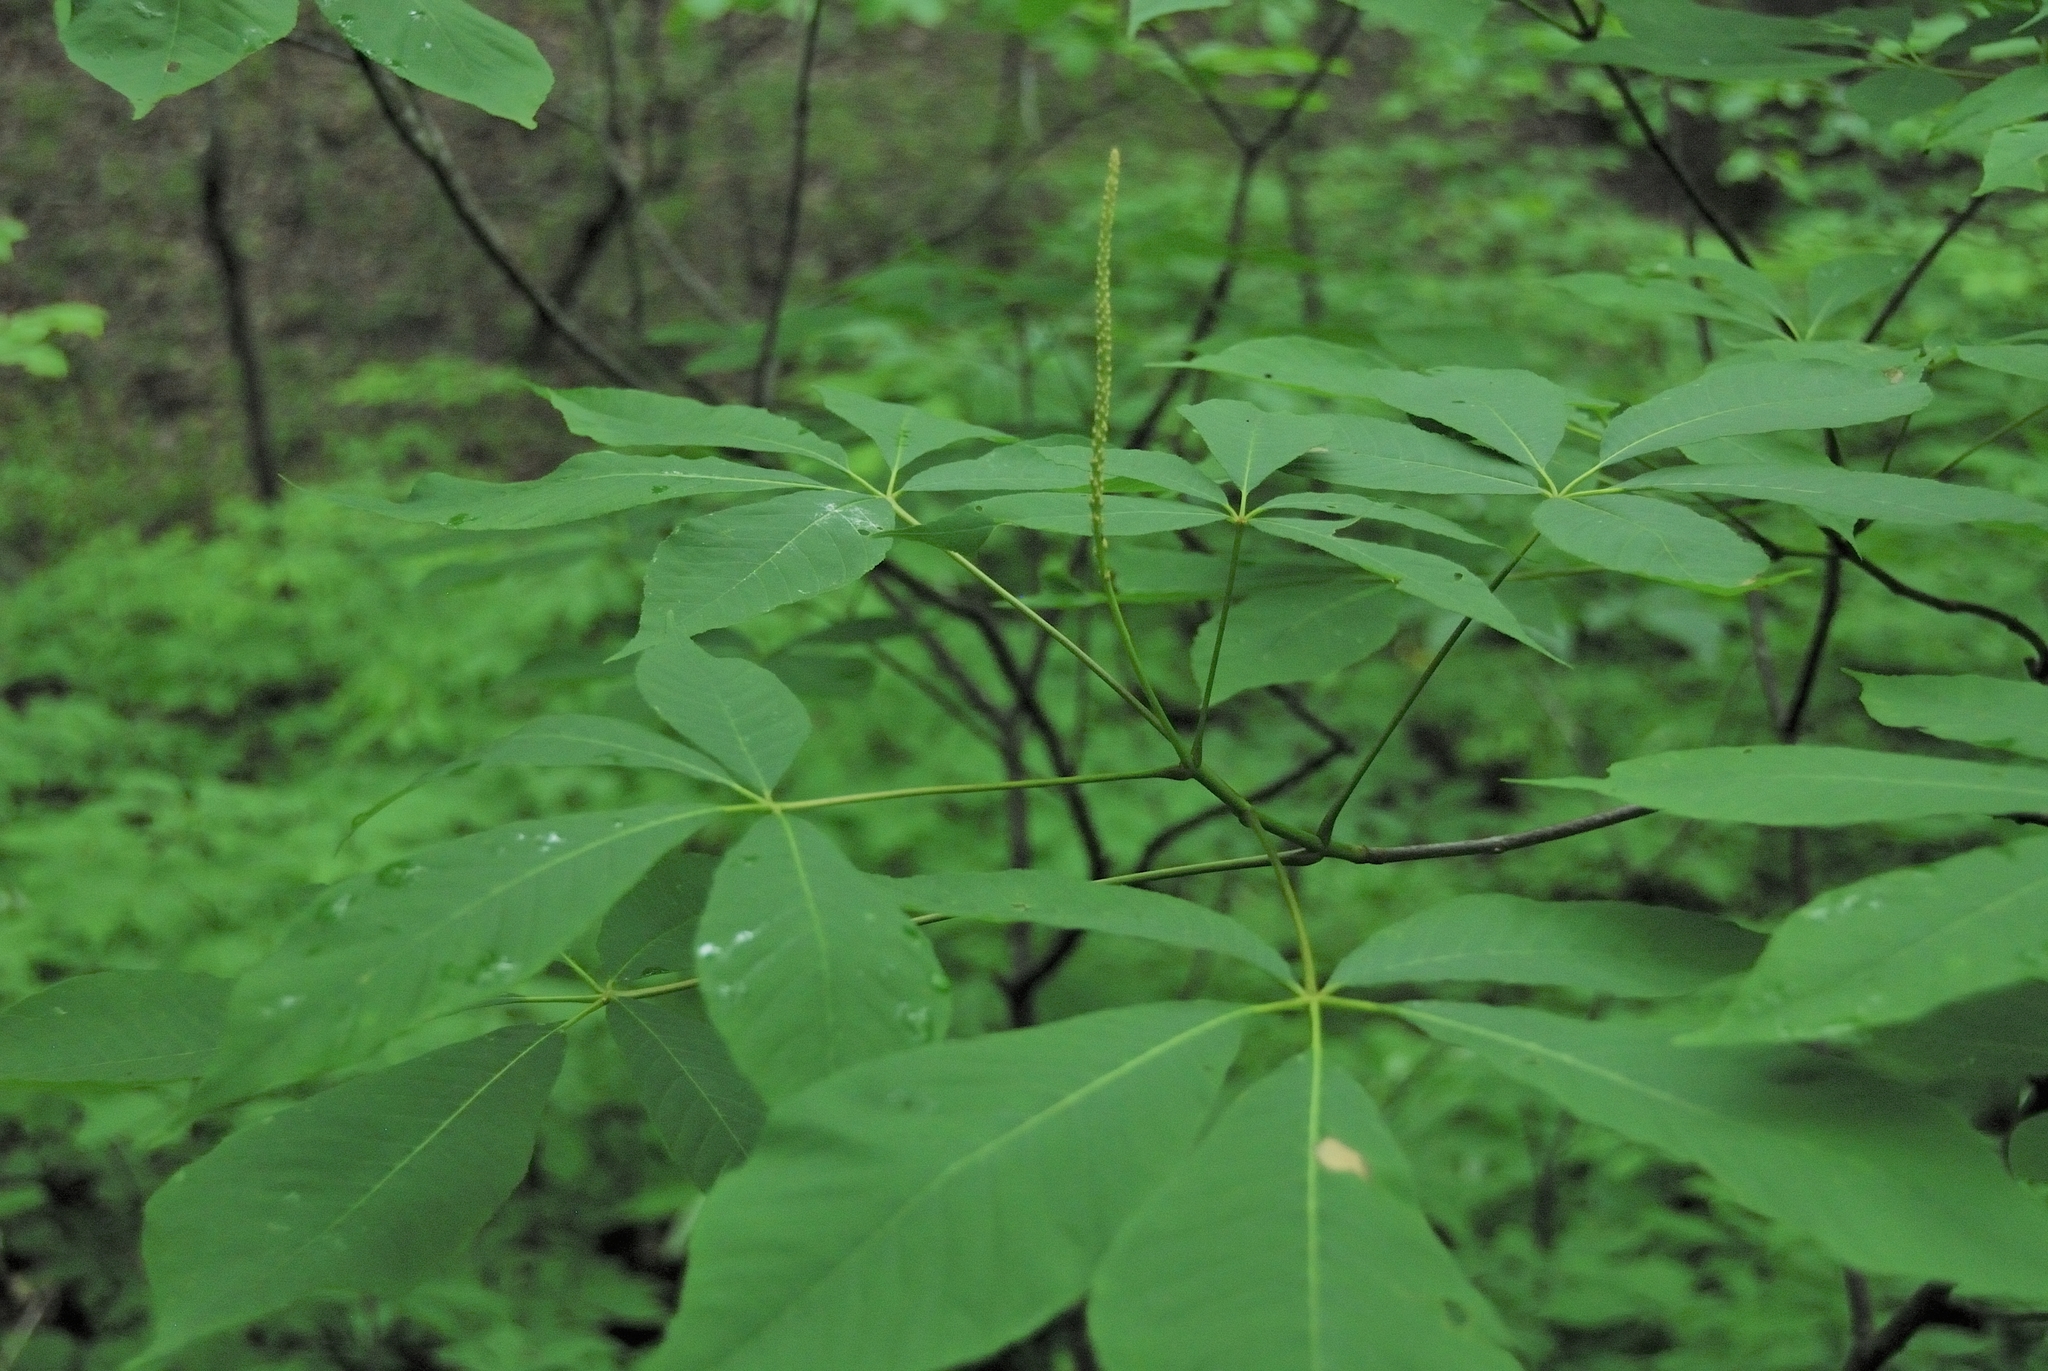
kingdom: Plantae
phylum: Tracheophyta
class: Magnoliopsida
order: Sapindales
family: Sapindaceae
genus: Aesculus
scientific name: Aesculus parviflora
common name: Bottlebrush buckeye
